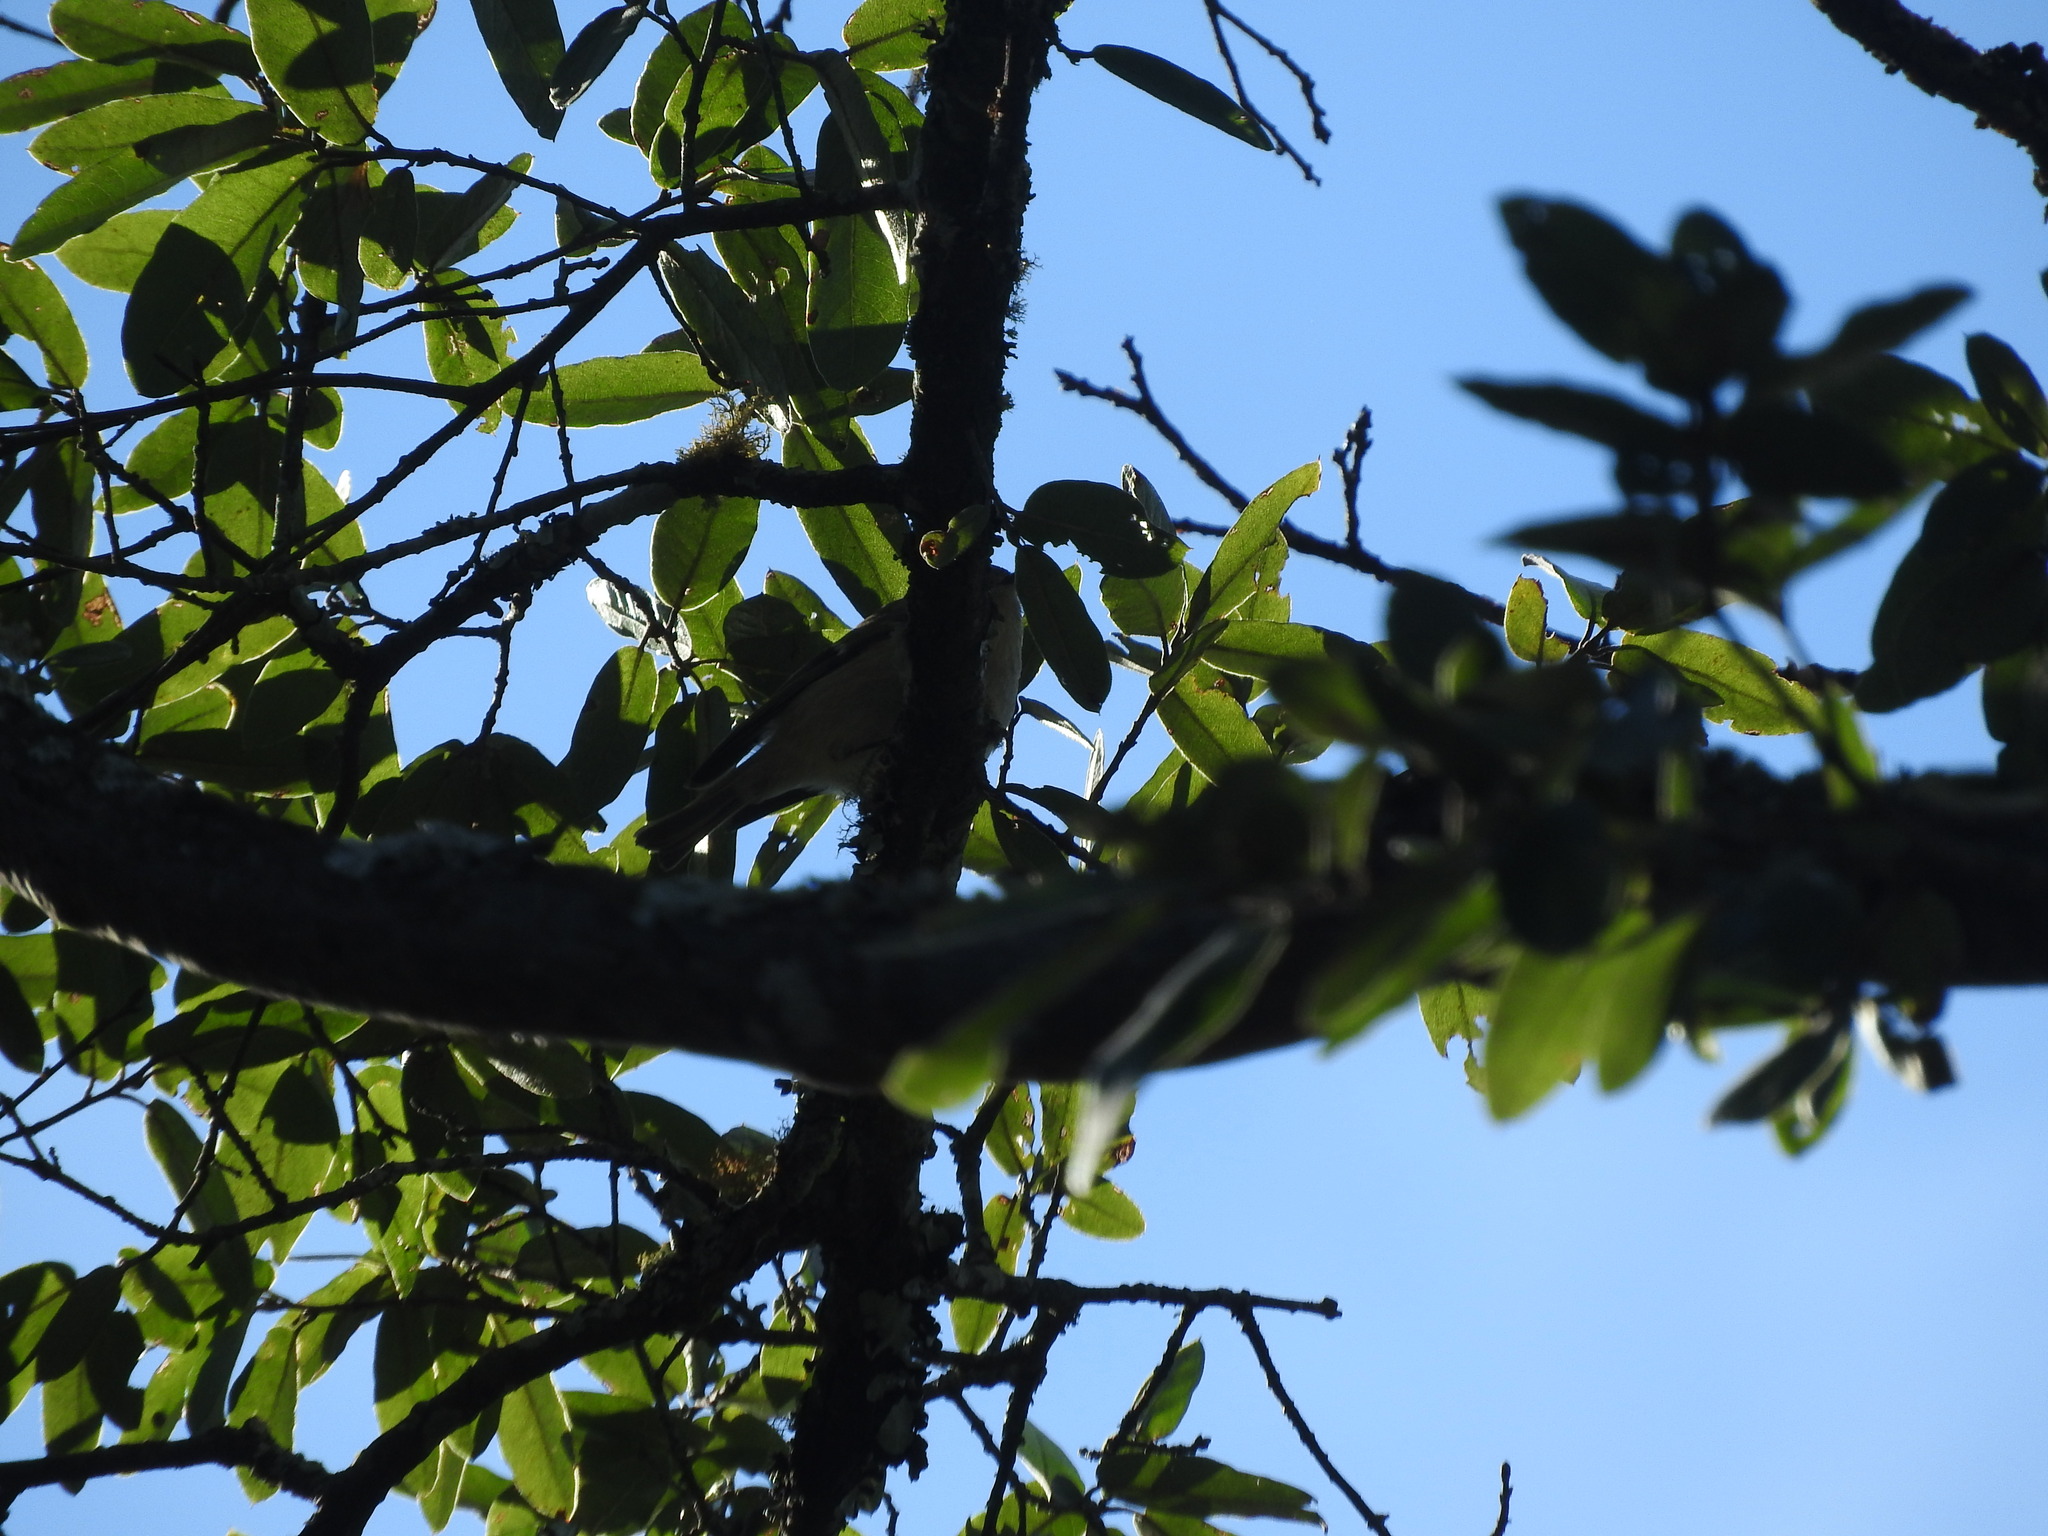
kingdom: Animalia
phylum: Chordata
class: Aves
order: Passeriformes
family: Regulidae
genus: Regulus
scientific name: Regulus calendula
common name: Ruby-crowned kinglet
